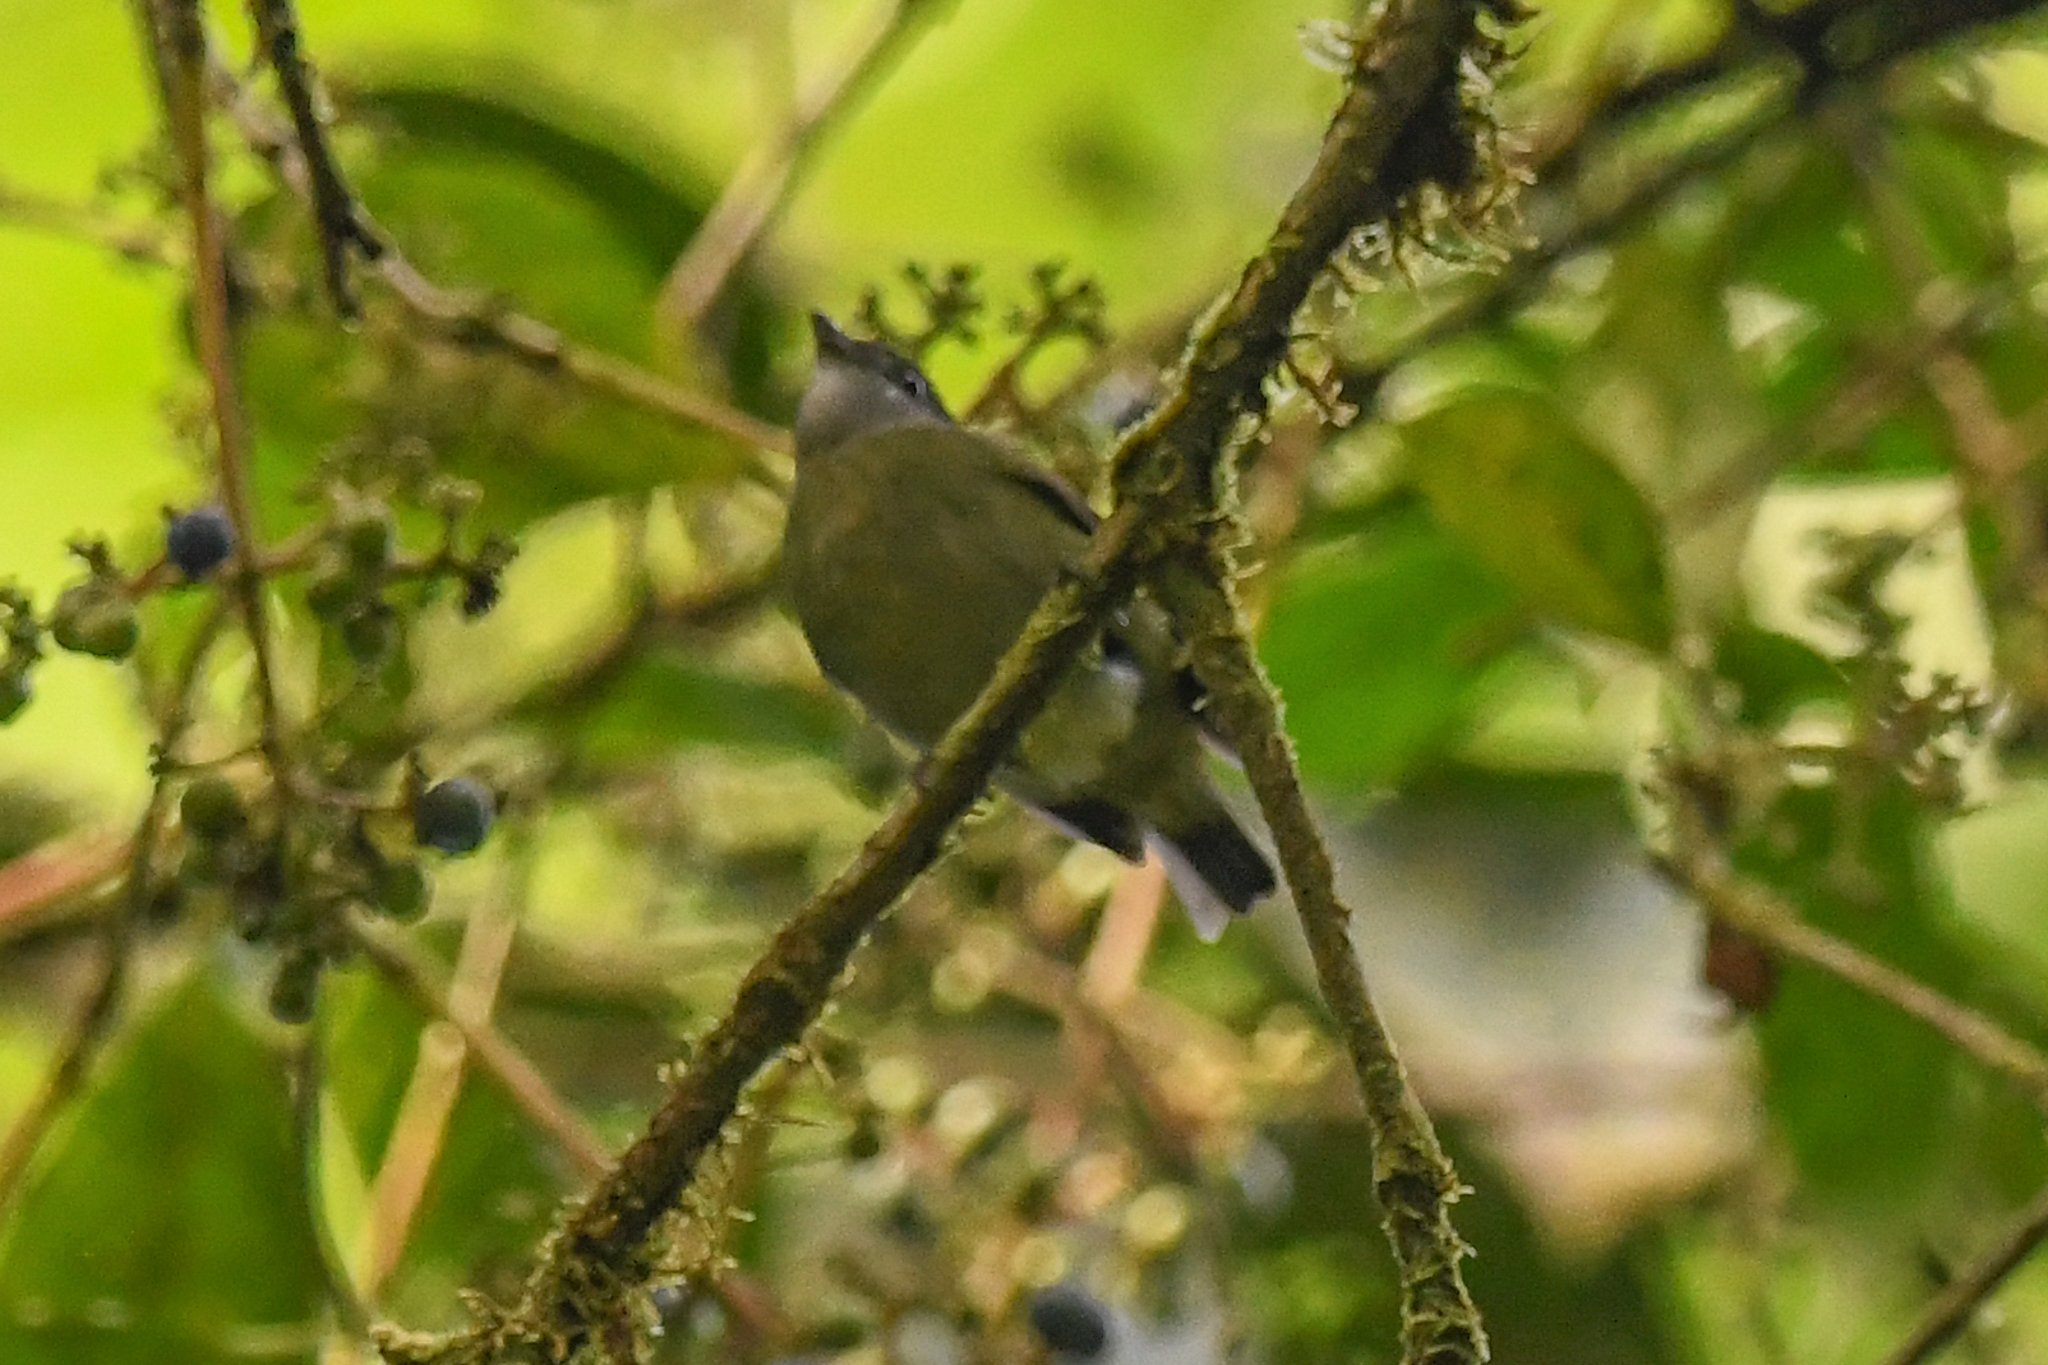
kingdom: Animalia
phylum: Chordata
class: Aves
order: Passeriformes
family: Pipridae
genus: Corapipo
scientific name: Corapipo altera
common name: White-ruffed manakin
